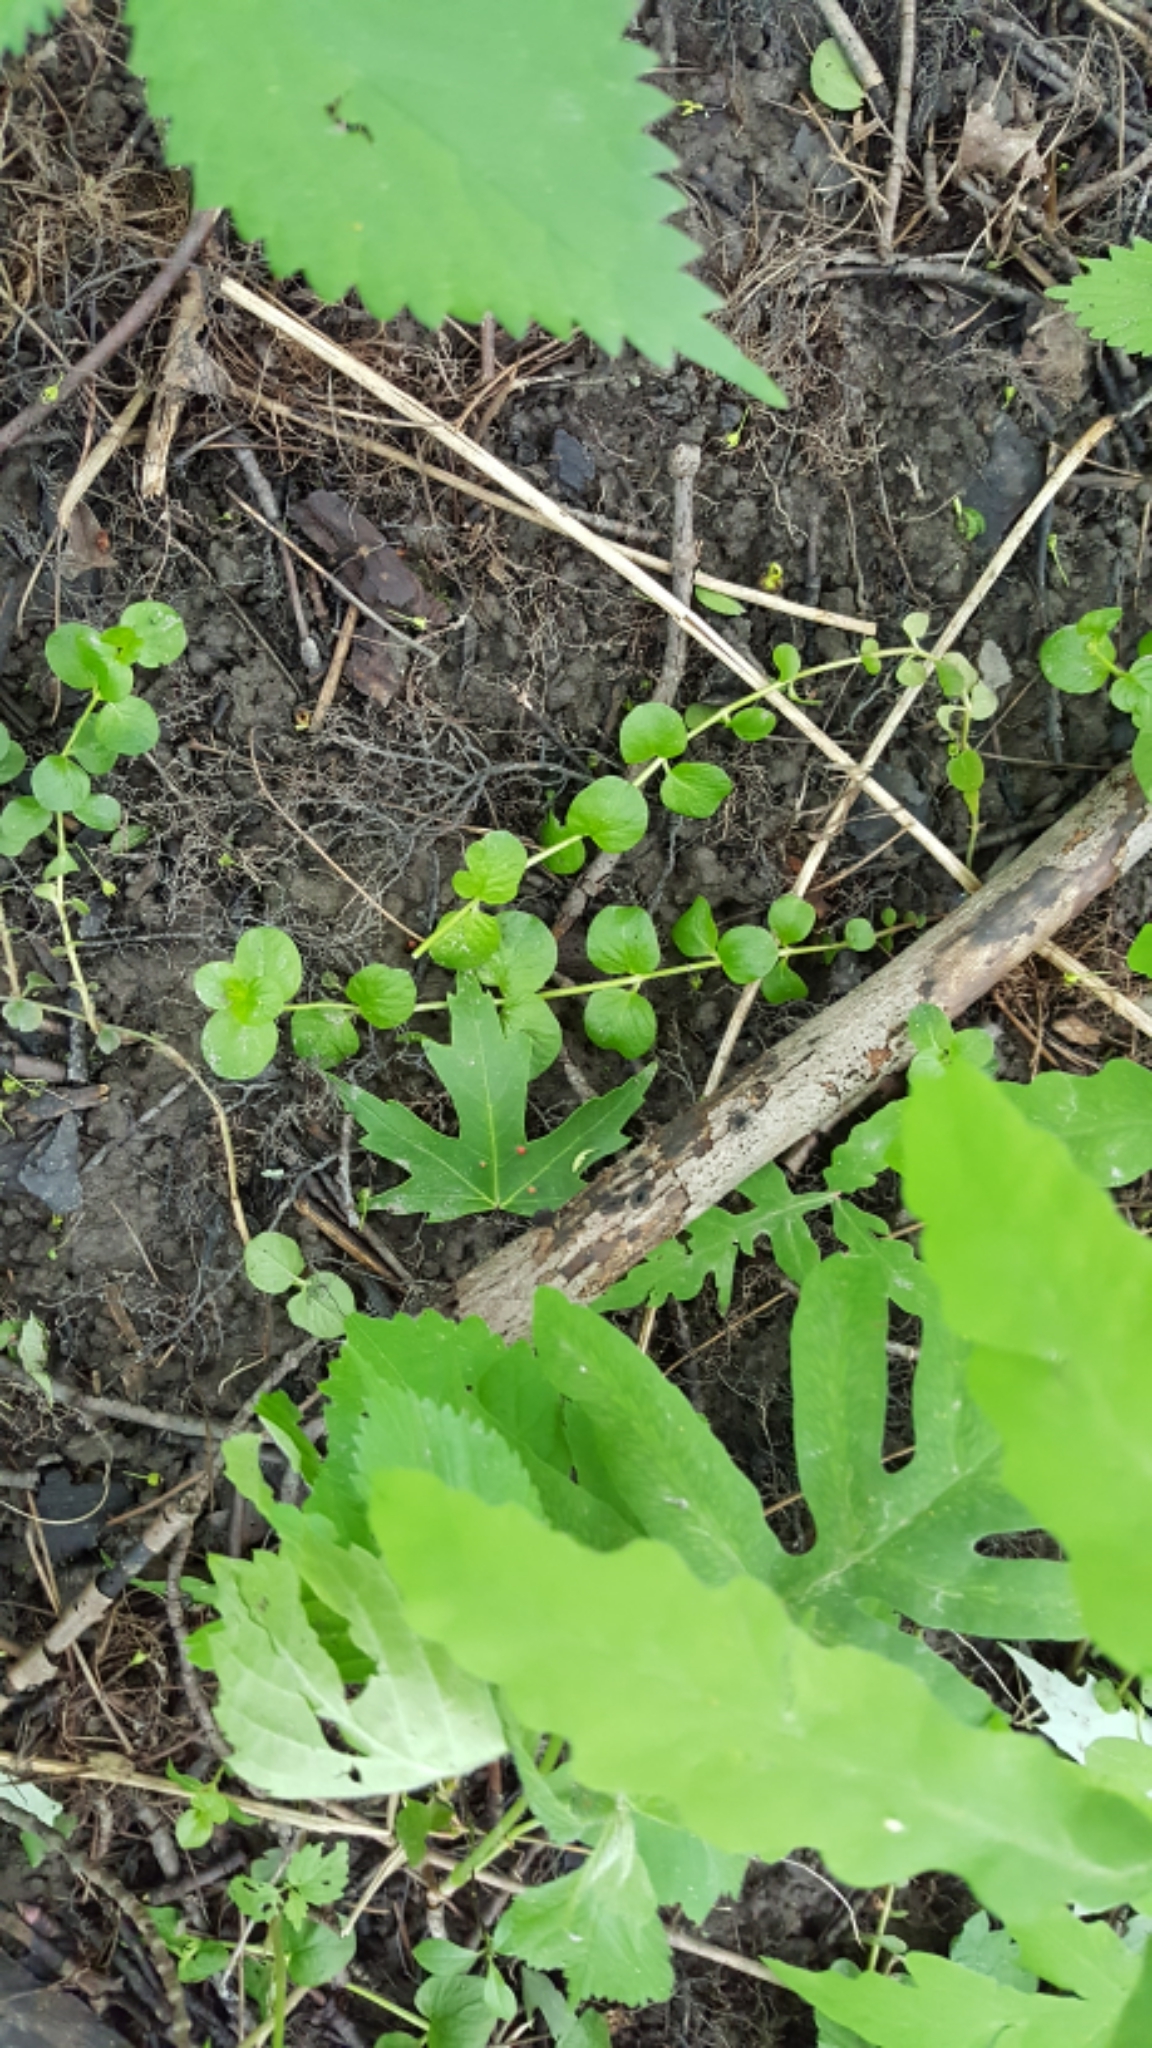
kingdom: Plantae
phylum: Tracheophyta
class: Magnoliopsida
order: Ericales
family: Primulaceae
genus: Lysimachia
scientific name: Lysimachia nummularia
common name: Moneywort
